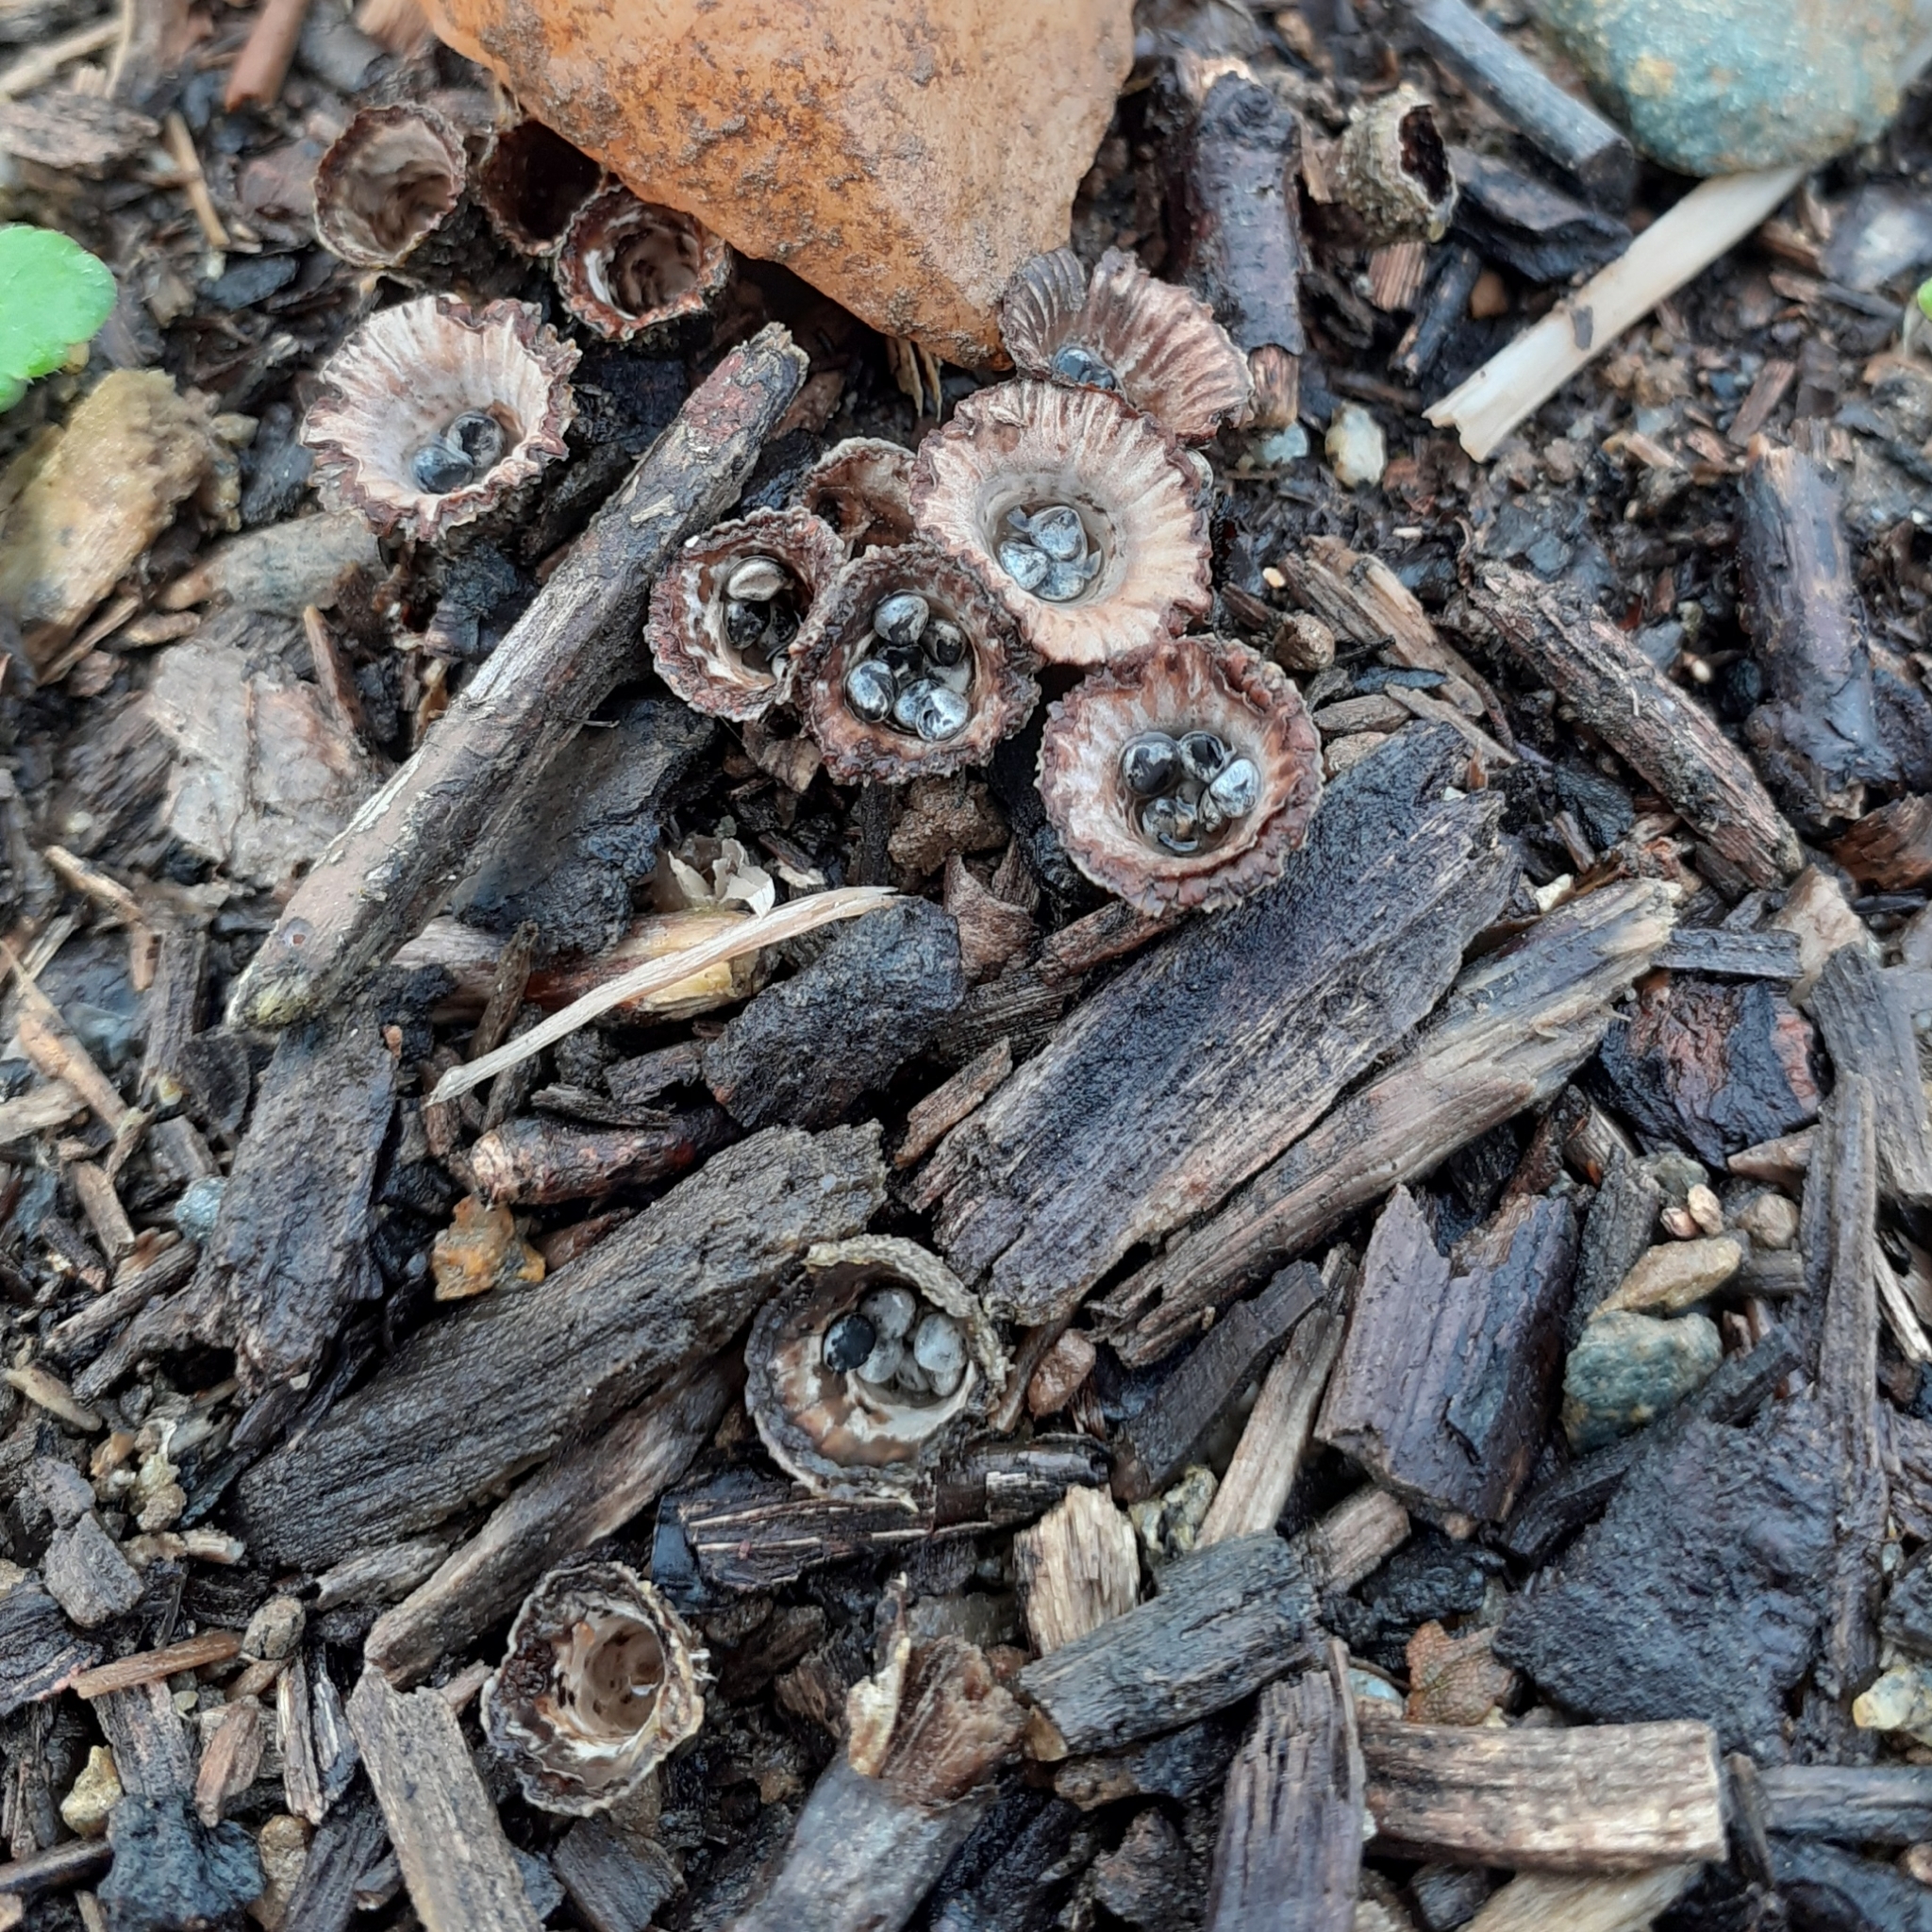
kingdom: Fungi
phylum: Basidiomycota
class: Agaricomycetes
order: Agaricales
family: Agaricaceae
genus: Cyathus
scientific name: Cyathus striatus
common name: Fluted bird's nest
